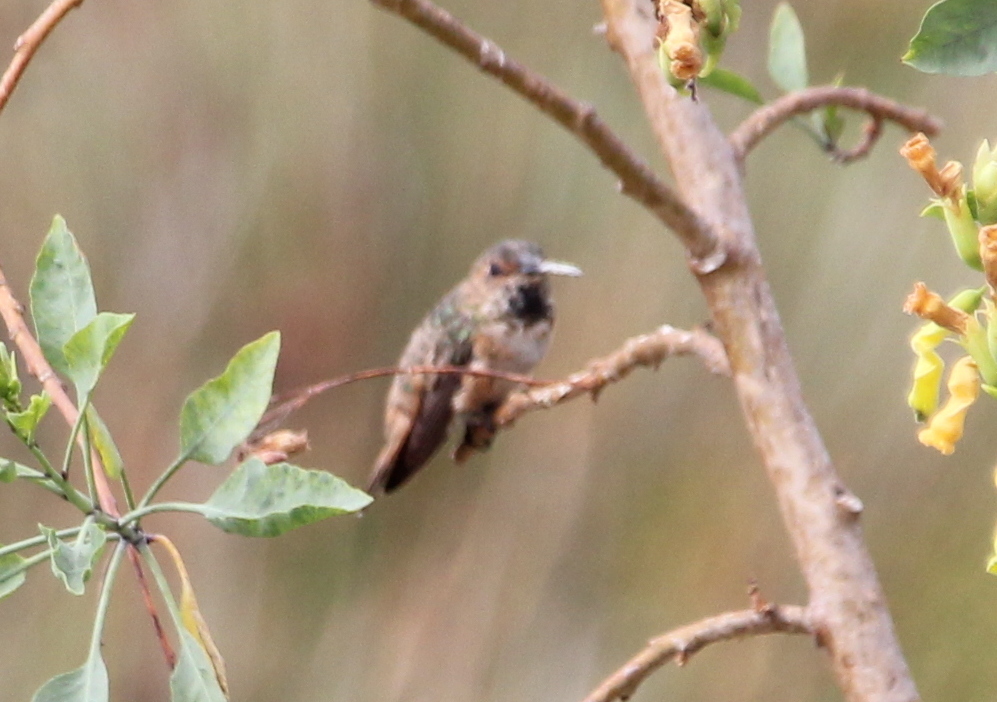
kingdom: Animalia
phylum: Chordata
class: Aves
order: Apodiformes
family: Trochilidae
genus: Selasphorus
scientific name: Selasphorus
